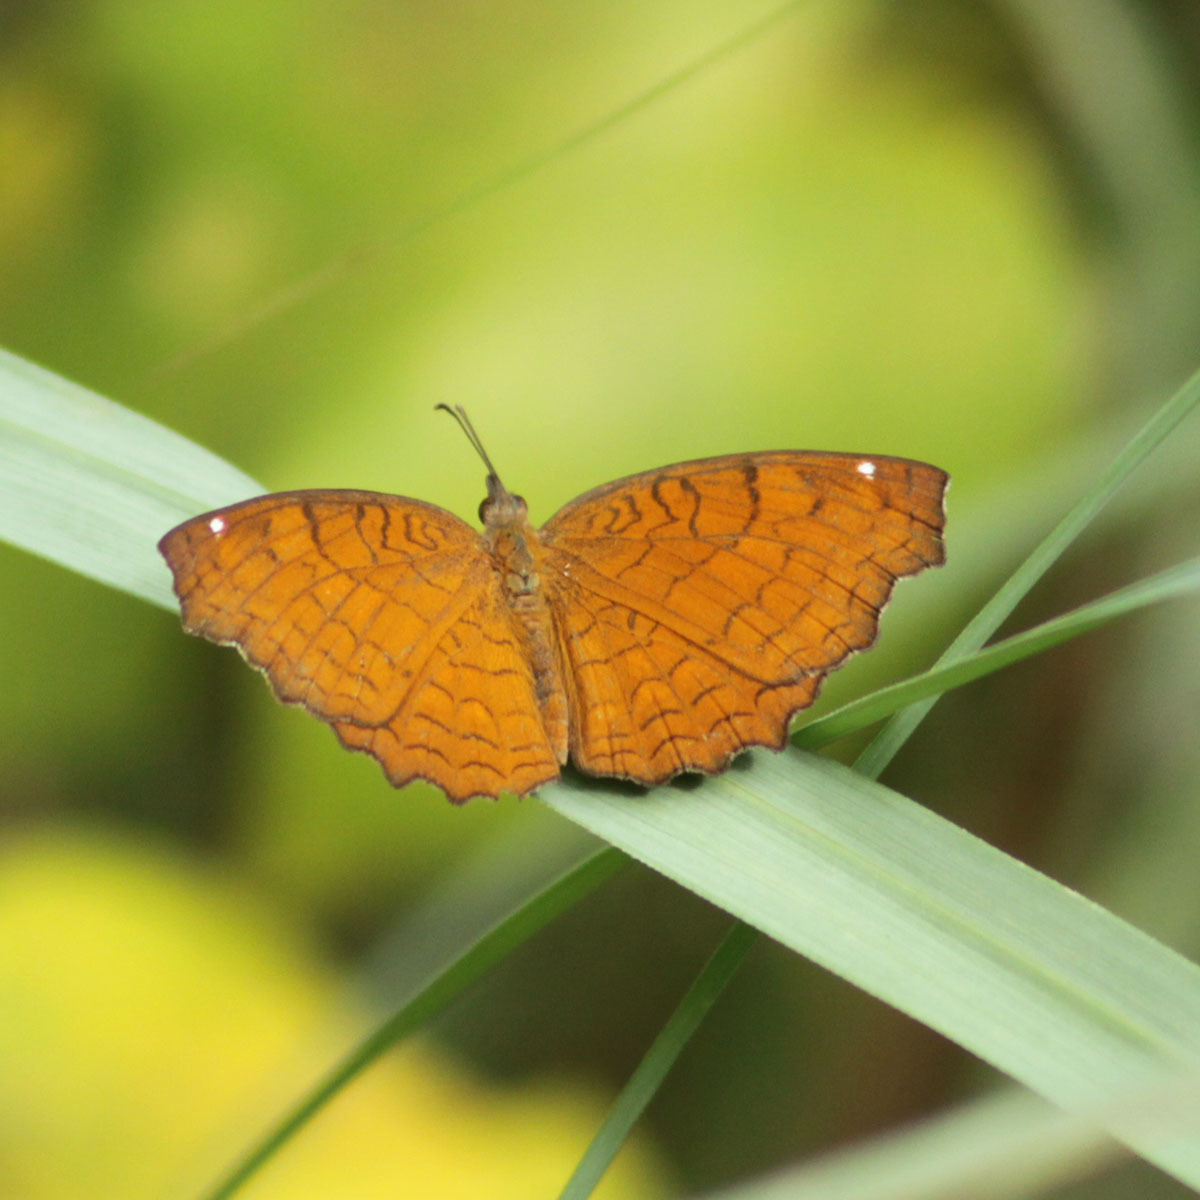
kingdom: Animalia
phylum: Arthropoda
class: Insecta
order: Lepidoptera
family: Nymphalidae
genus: Ariadne
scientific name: Ariadne ariadne
